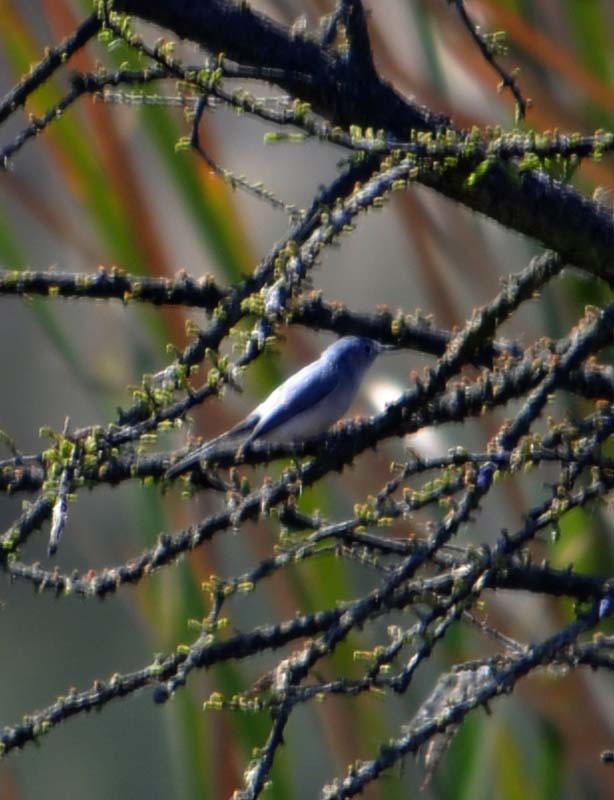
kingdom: Animalia
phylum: Chordata
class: Aves
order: Passeriformes
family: Polioptilidae
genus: Polioptila
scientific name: Polioptila caerulea
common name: Blue-gray gnatcatcher
